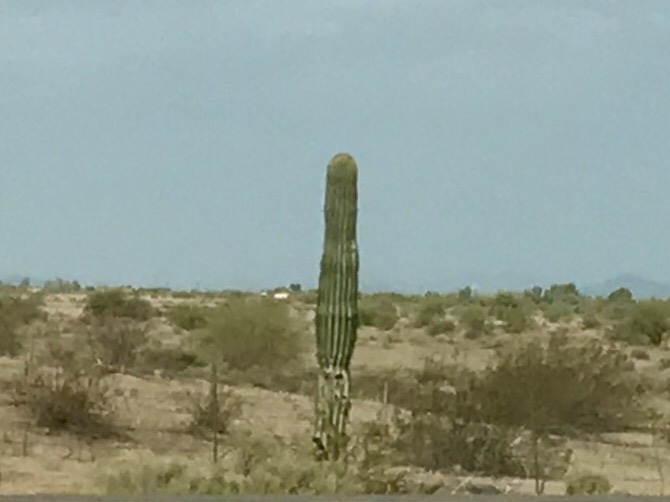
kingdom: Plantae
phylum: Tracheophyta
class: Magnoliopsida
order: Caryophyllales
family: Cactaceae
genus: Carnegiea
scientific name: Carnegiea gigantea
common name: Saguaro
